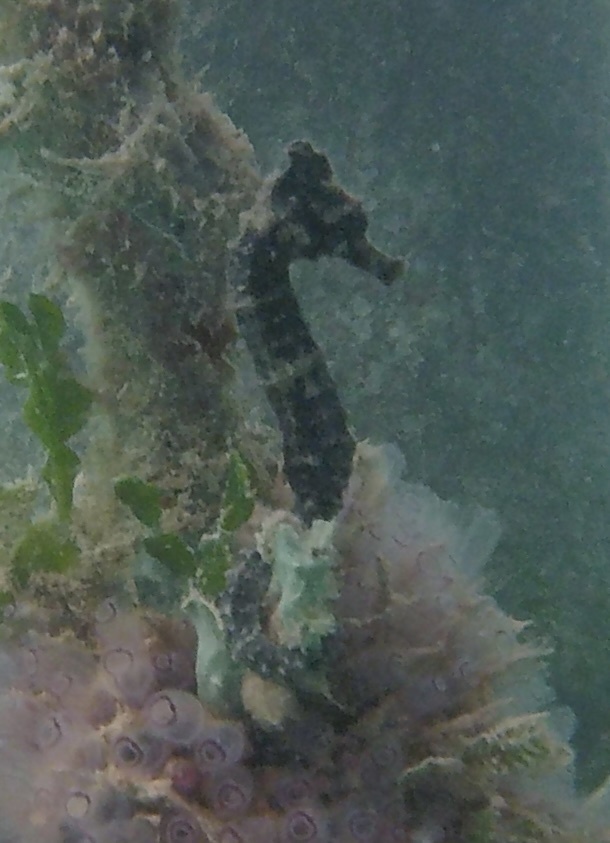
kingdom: Animalia
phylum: Chordata
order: Syngnathiformes
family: Syngnathidae
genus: Hippocampus
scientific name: Hippocampus reidi
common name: Slender seahorse
